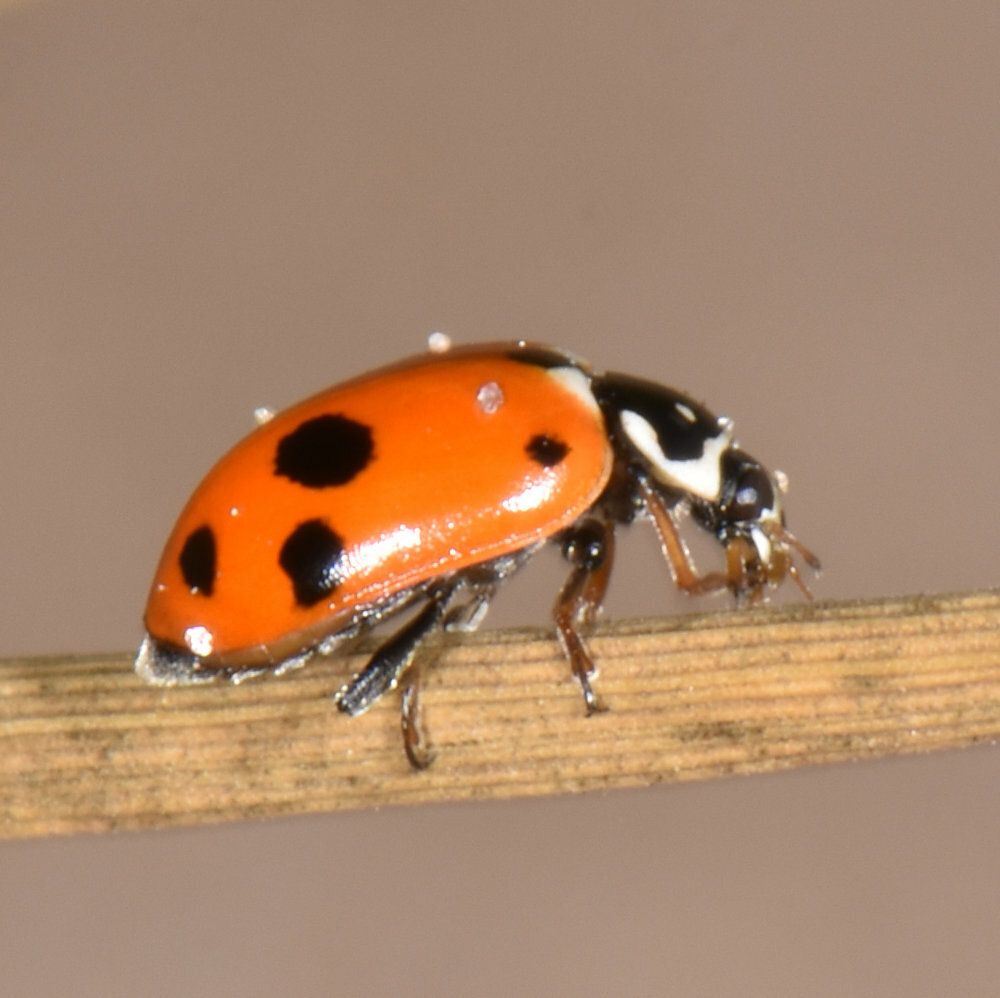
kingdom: Animalia
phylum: Arthropoda
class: Insecta
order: Coleoptera
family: Coccinellidae
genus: Hippodamia
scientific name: Hippodamia variegata
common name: Ladybird beetle
